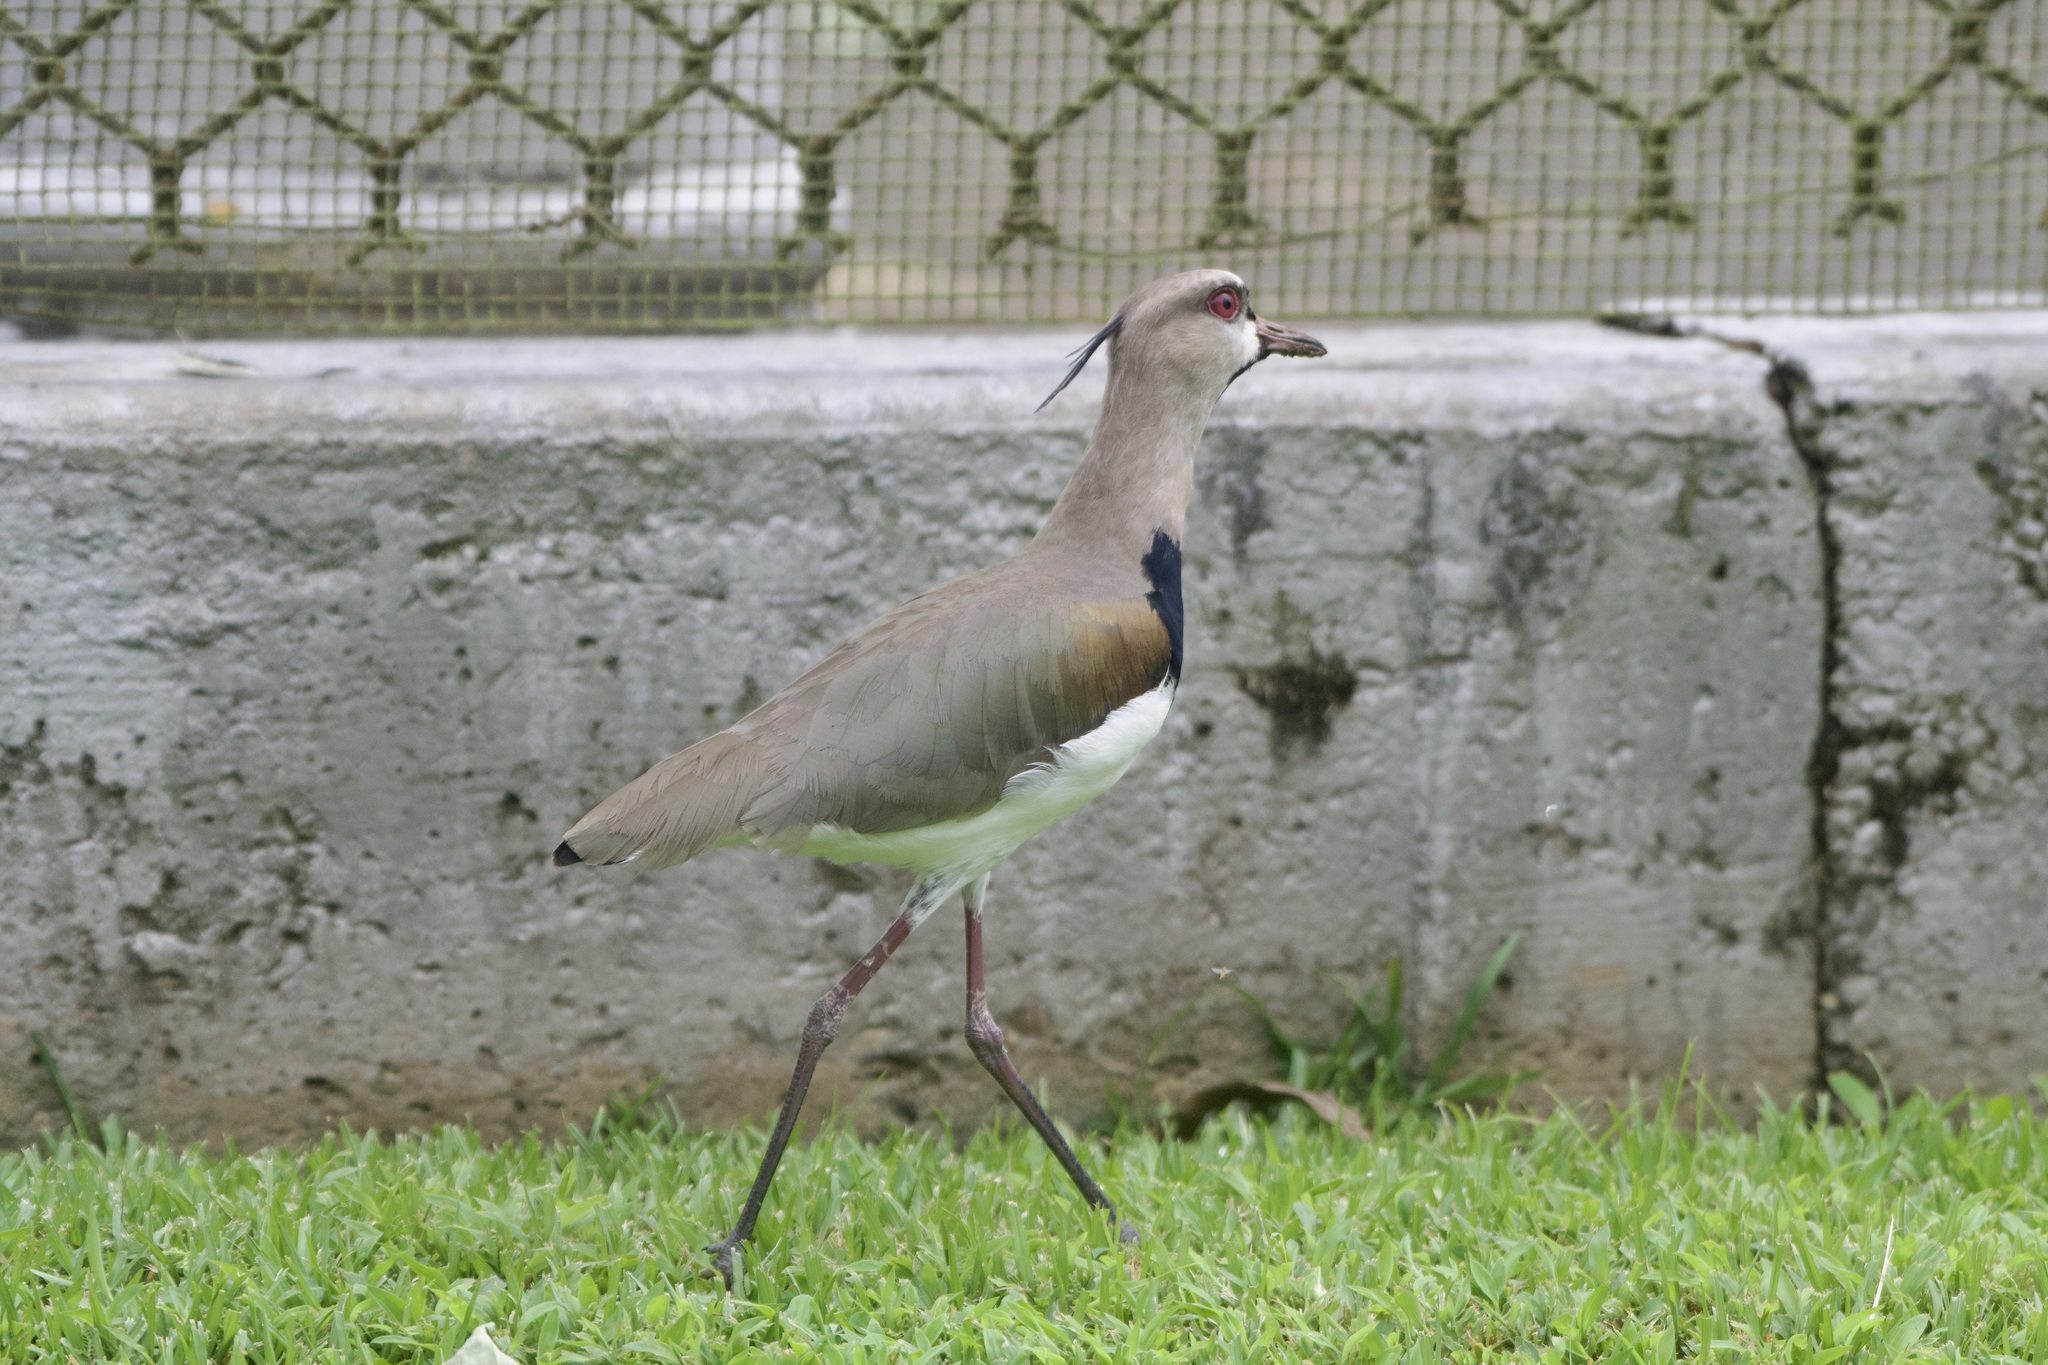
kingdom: Animalia
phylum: Chordata
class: Aves
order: Charadriiformes
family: Charadriidae
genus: Vanellus
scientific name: Vanellus chilensis
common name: Southern lapwing
